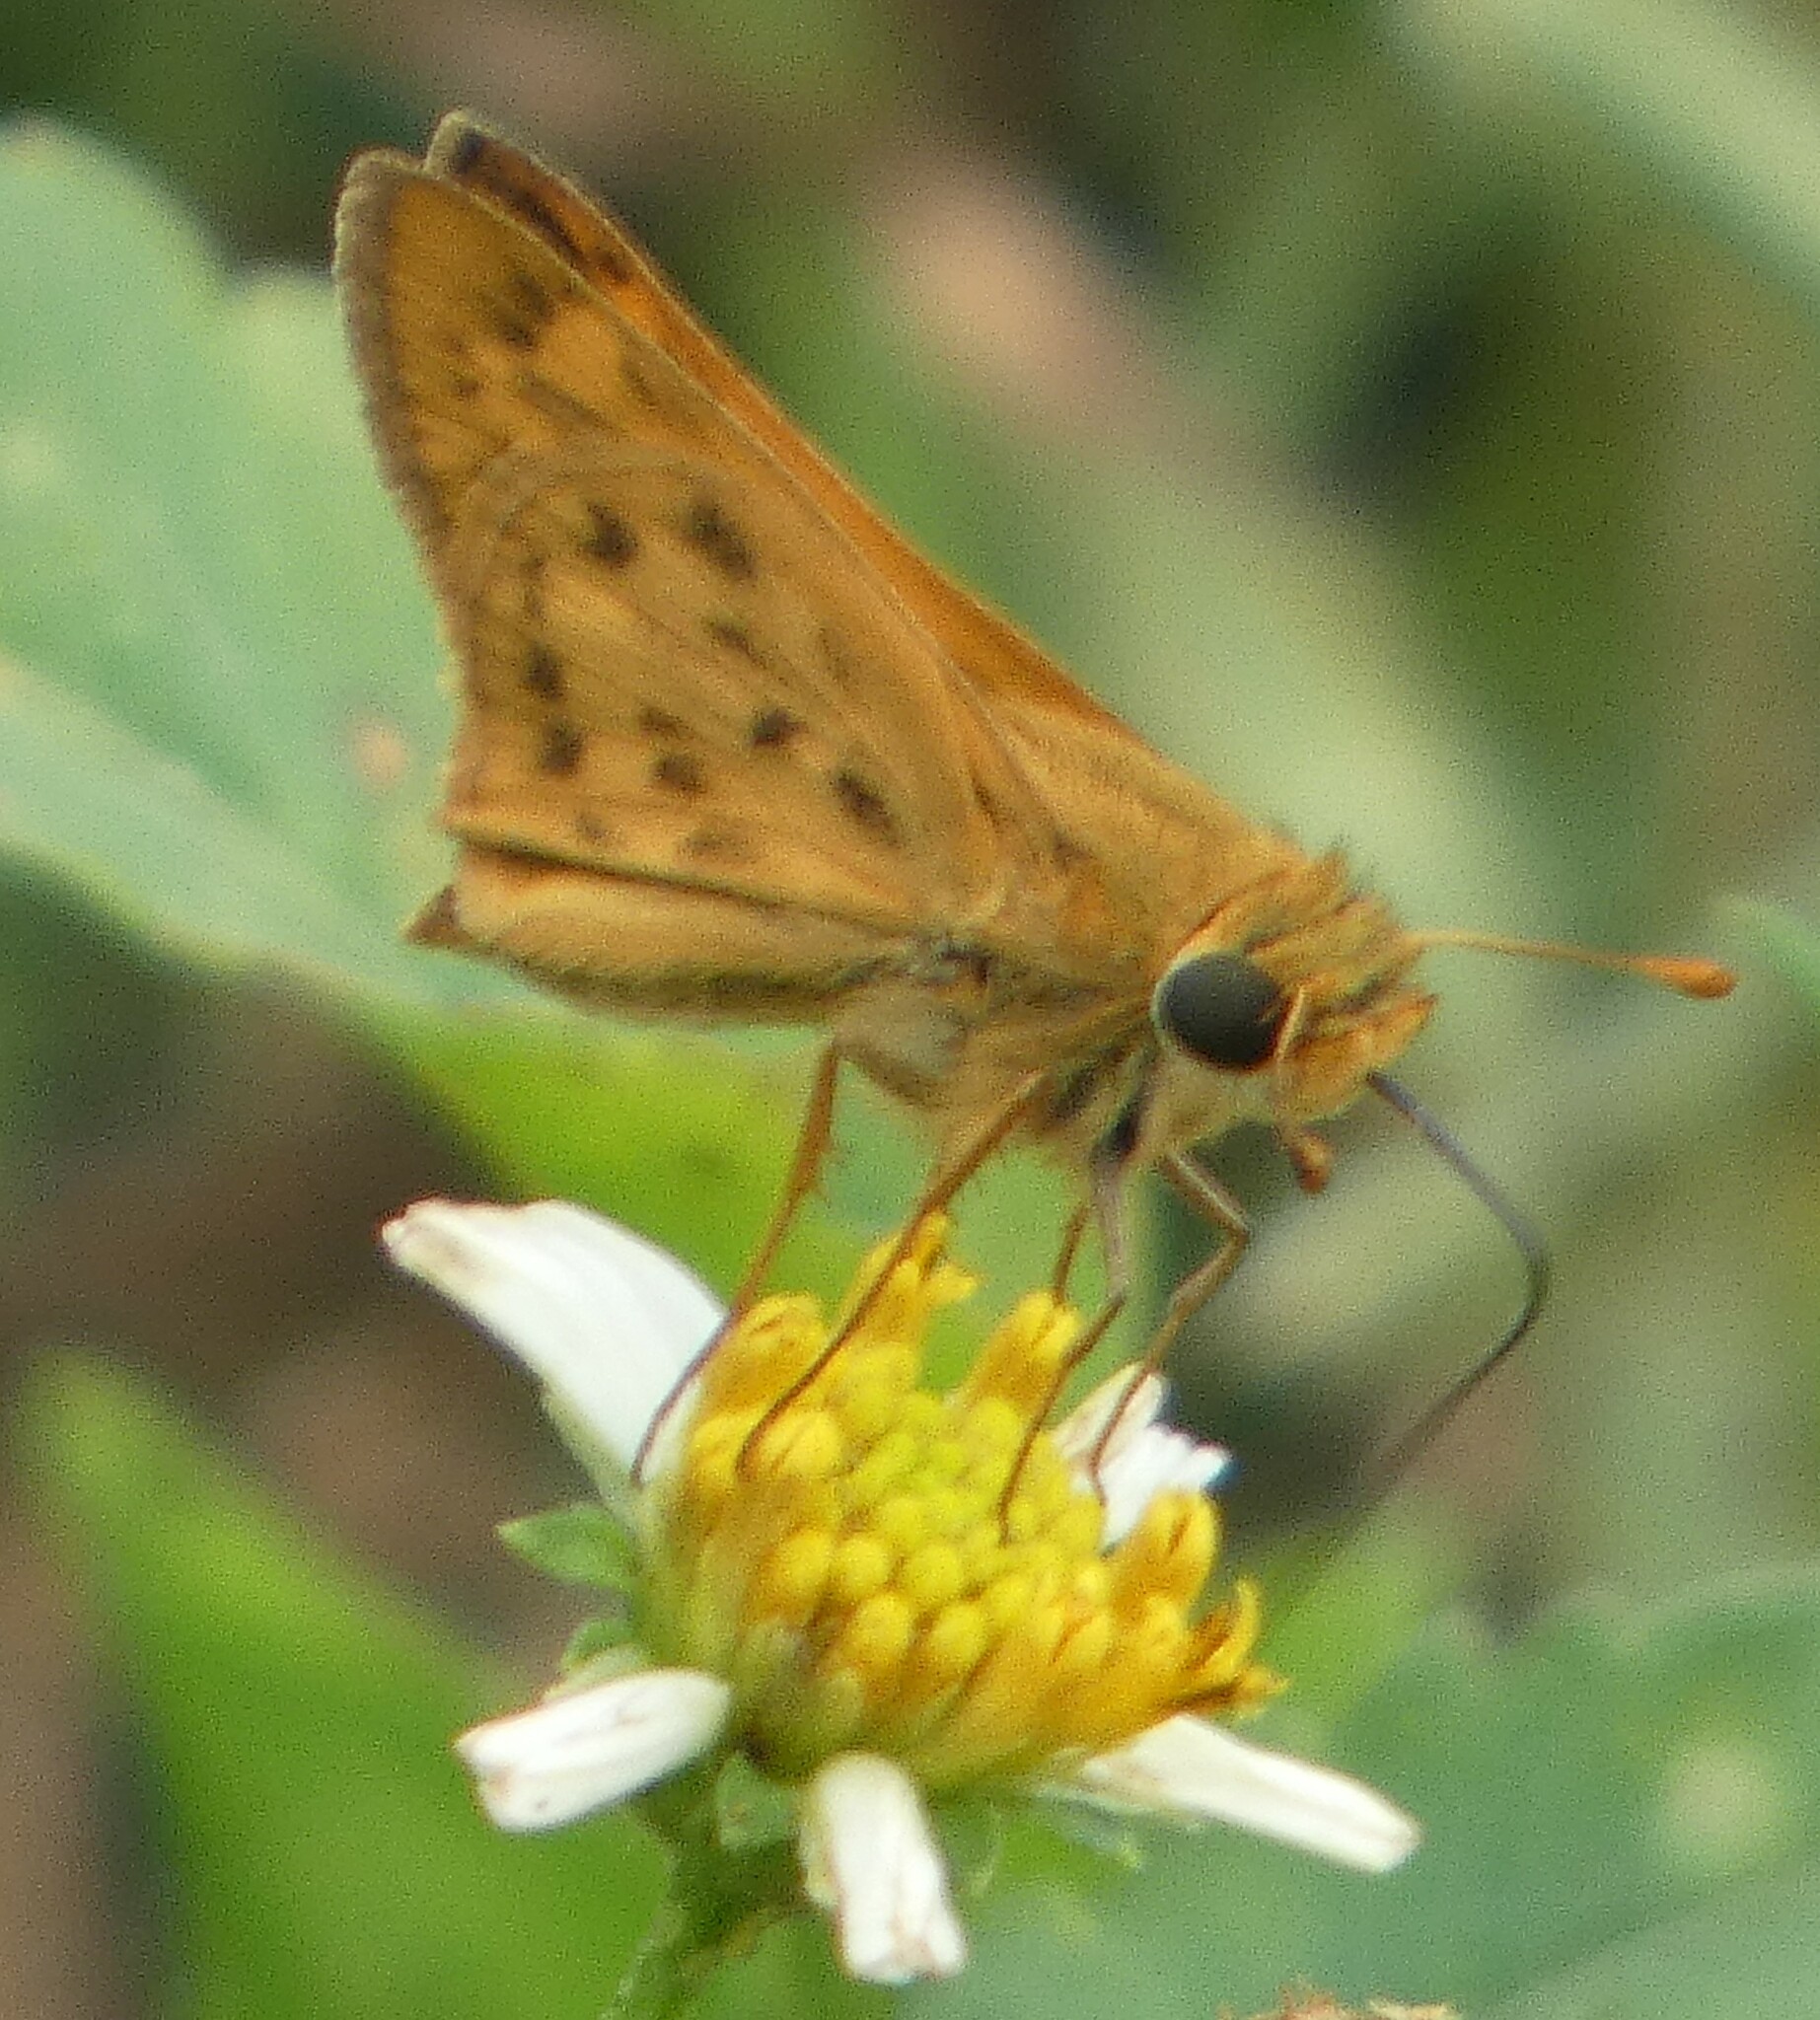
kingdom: Animalia
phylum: Arthropoda
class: Insecta
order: Lepidoptera
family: Hesperiidae
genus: Hylephila
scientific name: Hylephila phyleus
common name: Fiery skipper
